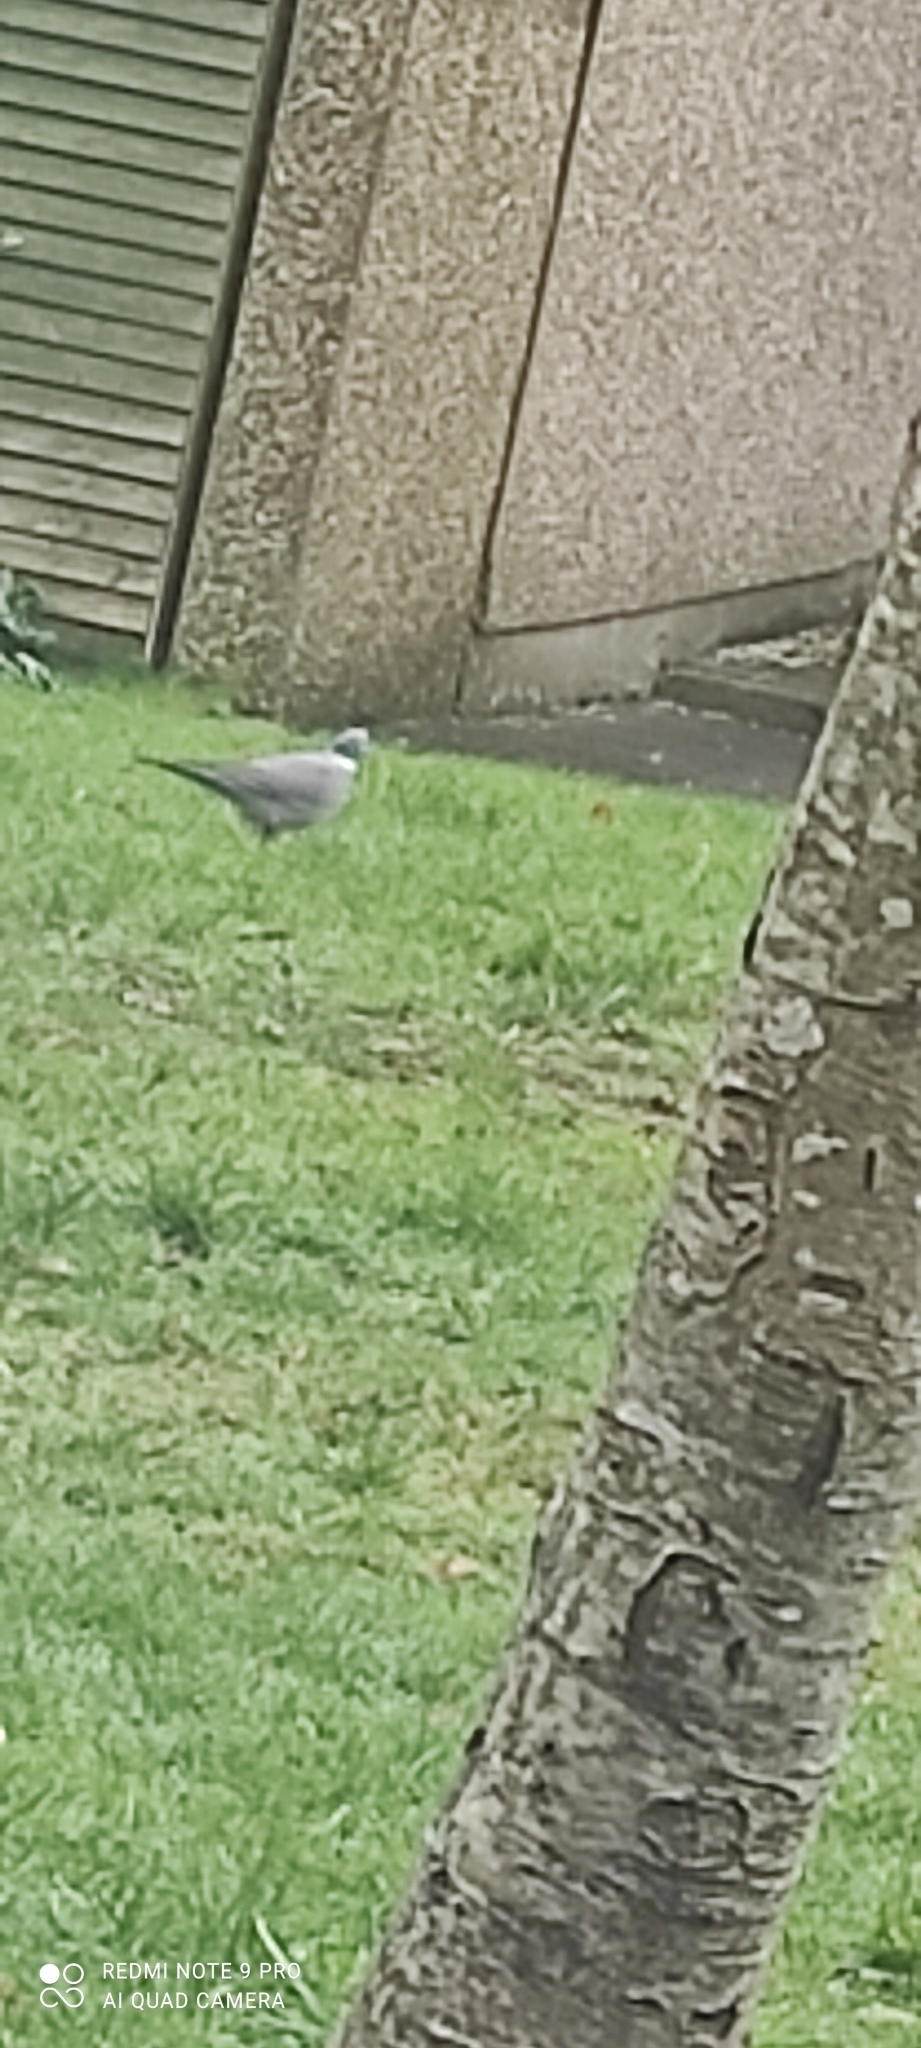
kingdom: Animalia
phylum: Chordata
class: Aves
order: Columbiformes
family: Columbidae
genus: Columba
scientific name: Columba palumbus
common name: Common wood pigeon
